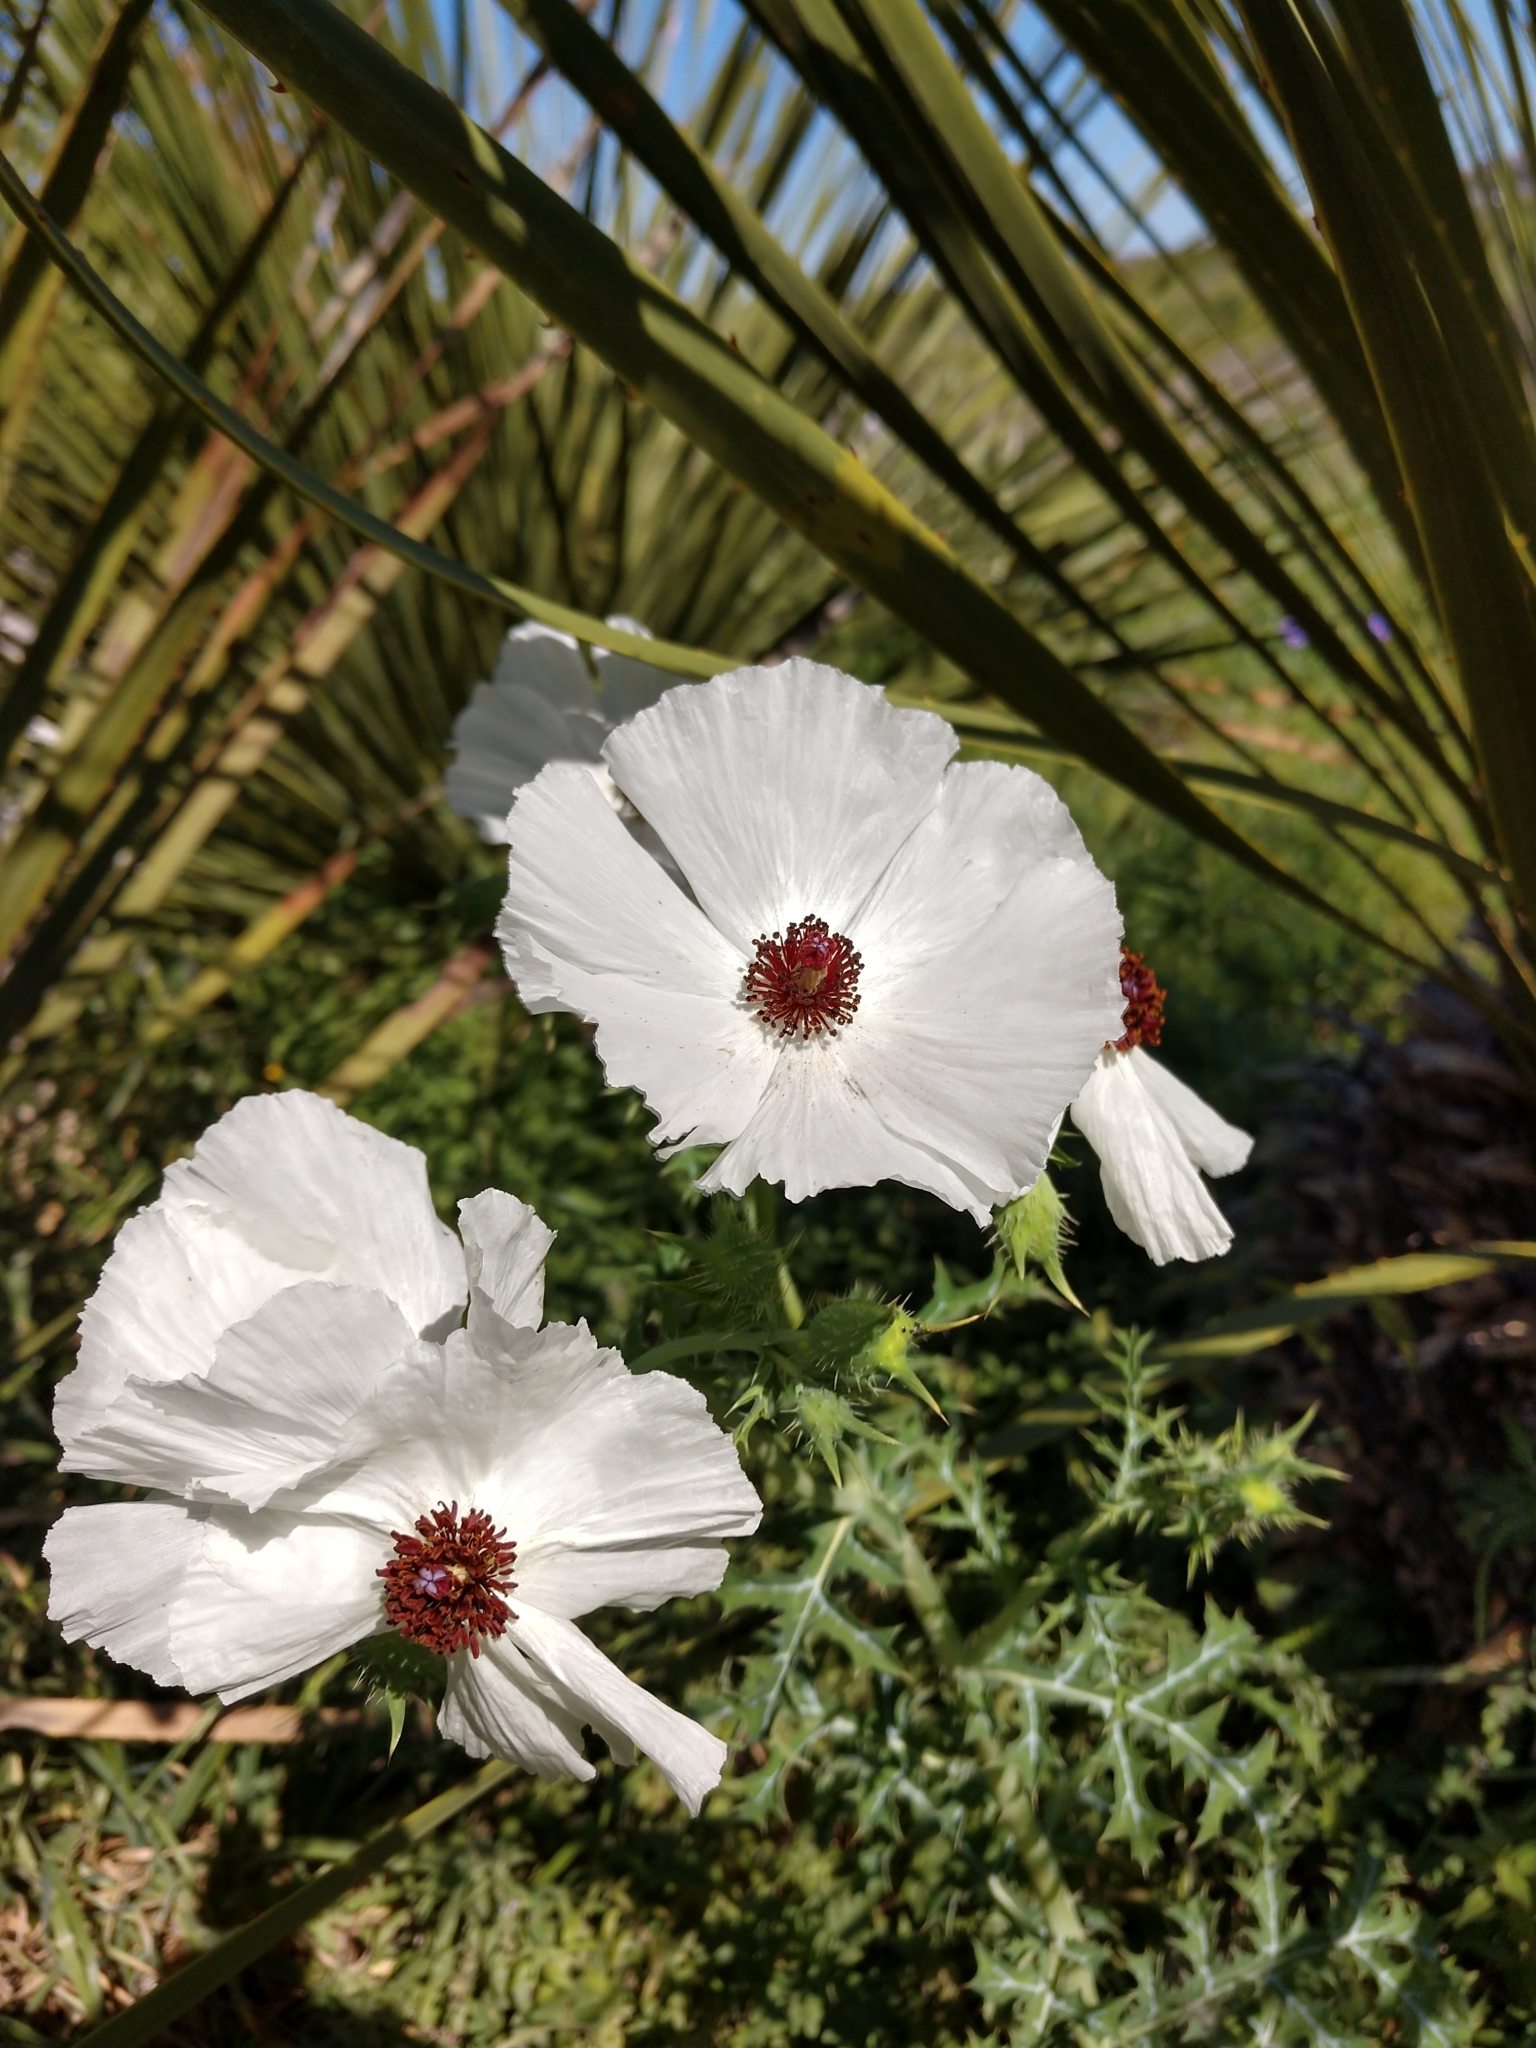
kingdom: Plantae
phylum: Tracheophyta
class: Magnoliopsida
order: Ranunculales
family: Papaveraceae
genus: Argemone
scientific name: Argemone sanguinea
